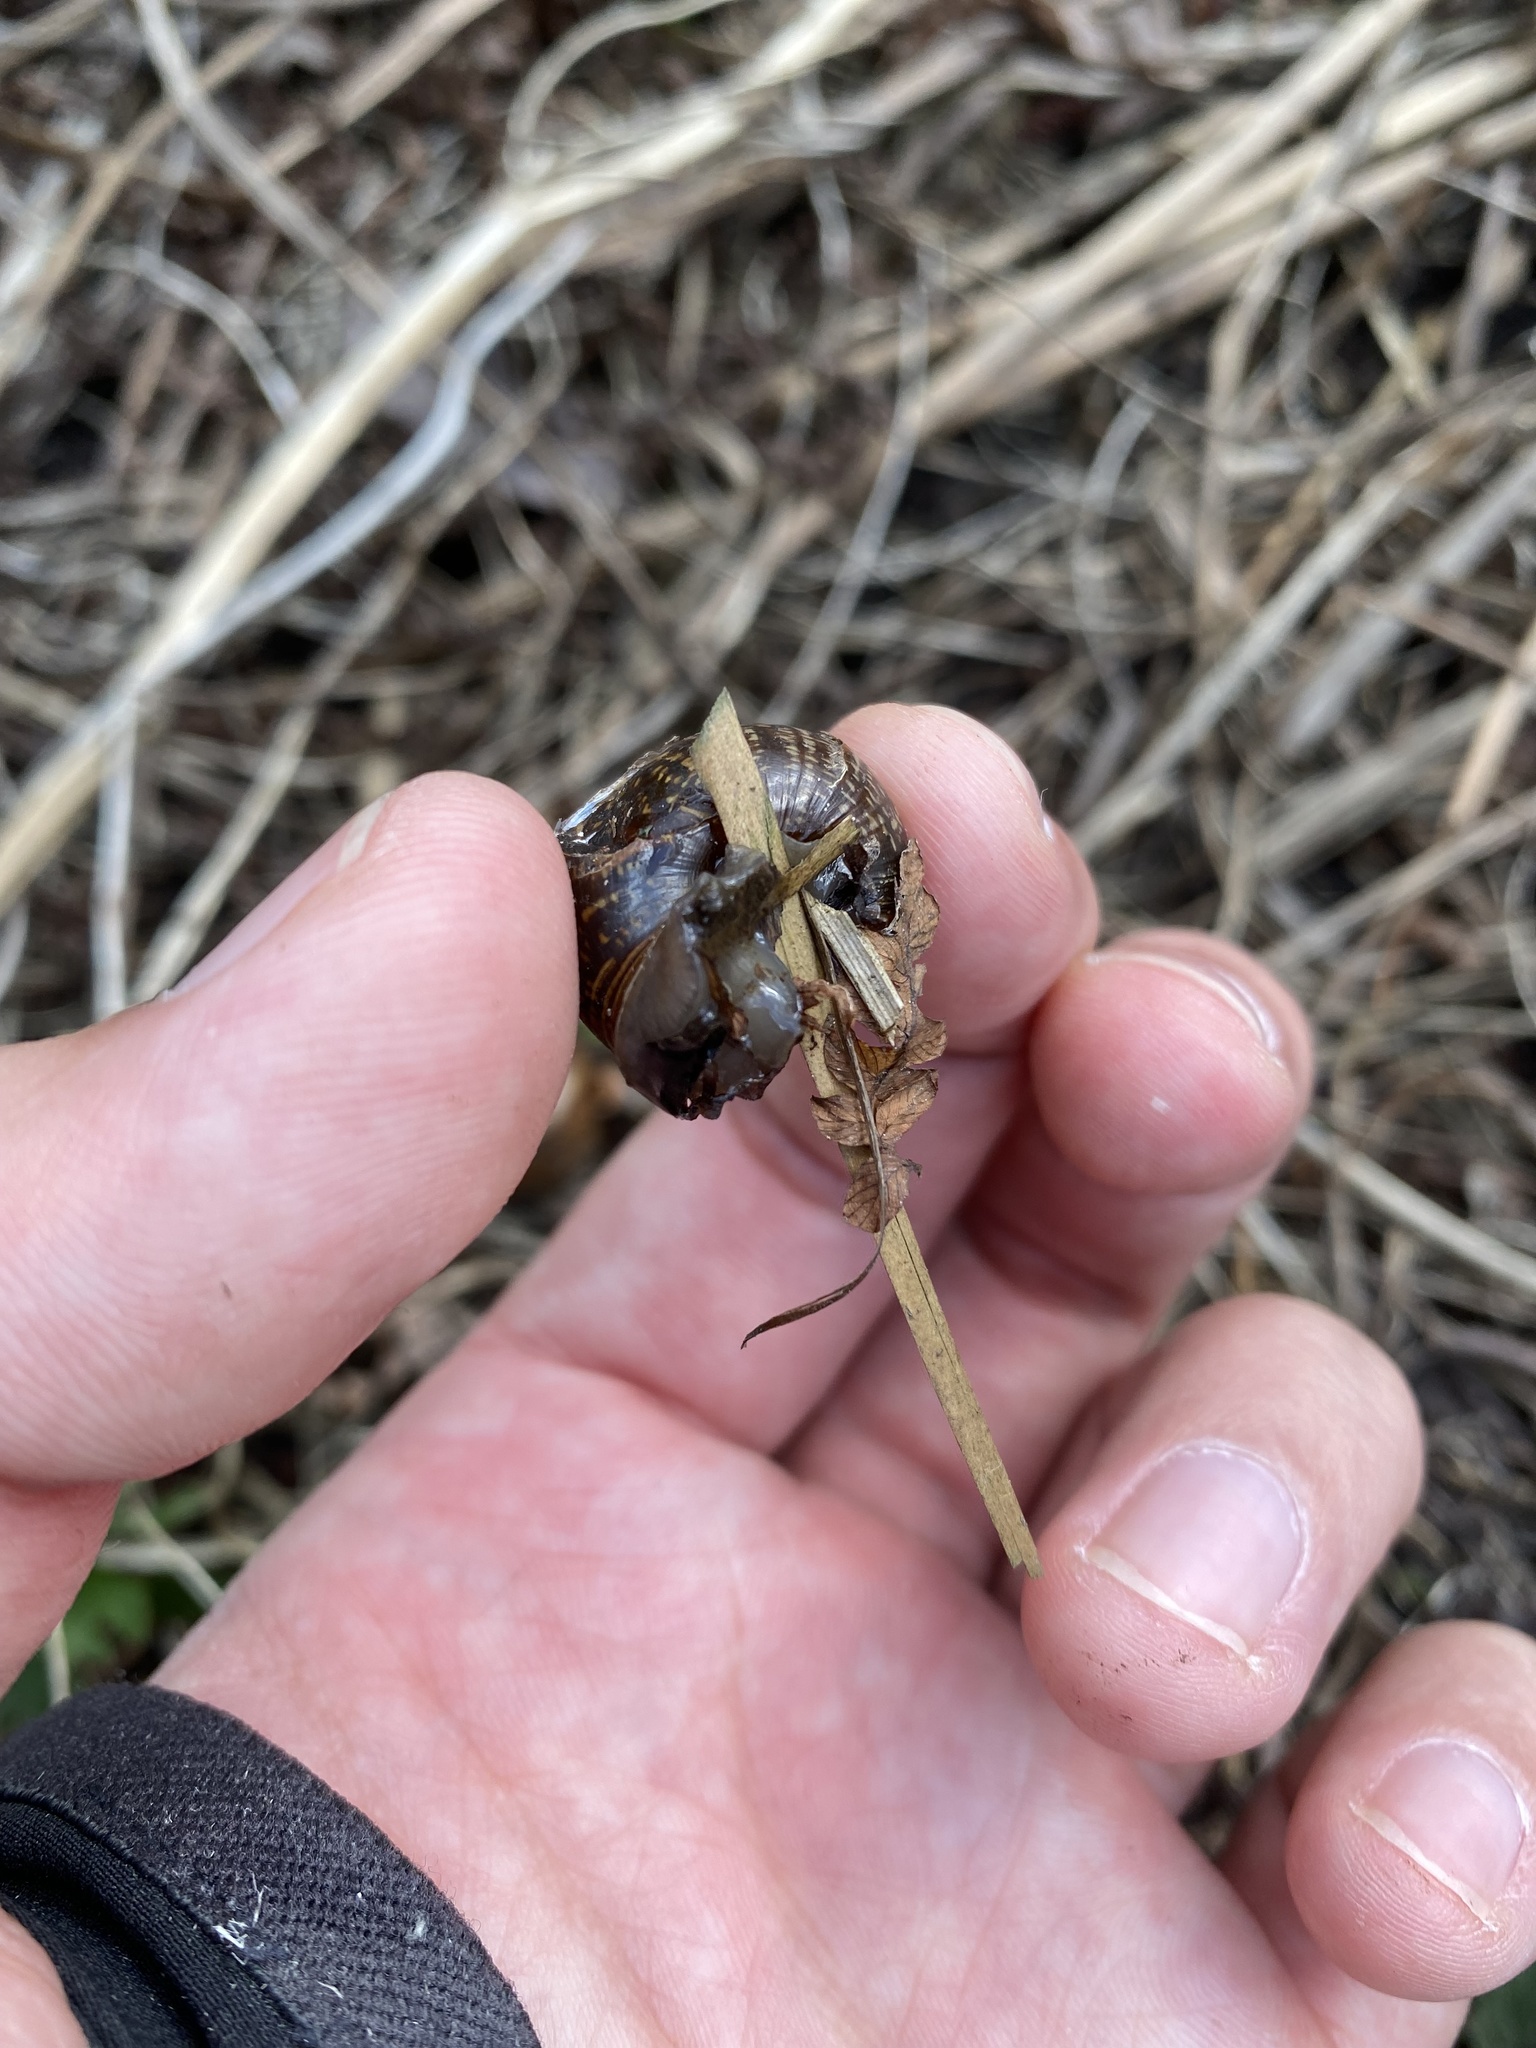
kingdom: Animalia
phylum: Mollusca
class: Gastropoda
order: Stylommatophora
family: Helicidae
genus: Arianta
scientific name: Arianta arbustorum
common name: Copse snail
